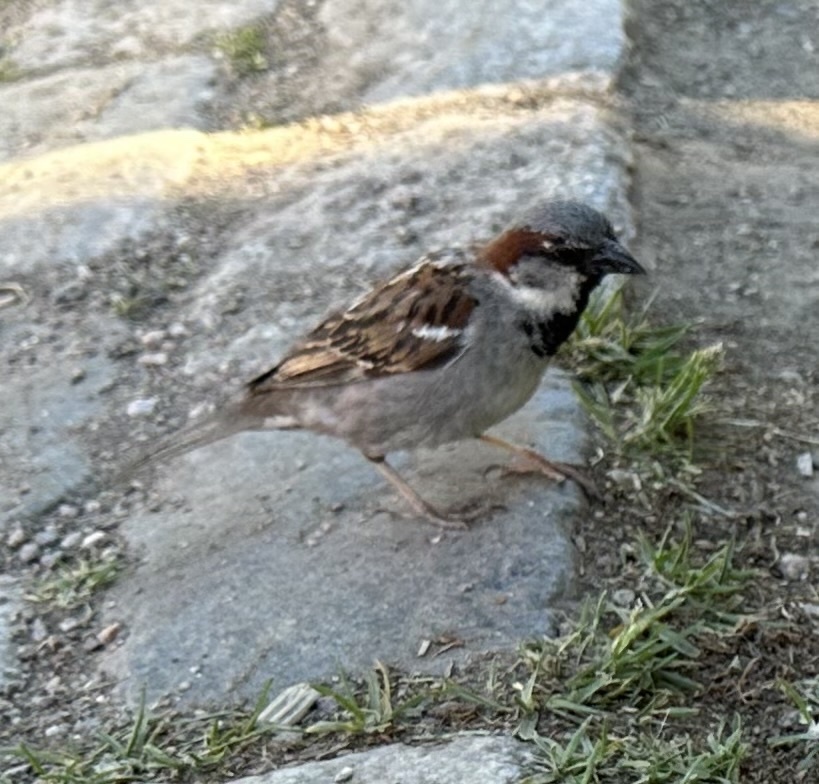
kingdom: Animalia
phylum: Chordata
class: Aves
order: Passeriformes
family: Passeridae
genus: Passer
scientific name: Passer domesticus
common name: House sparrow
